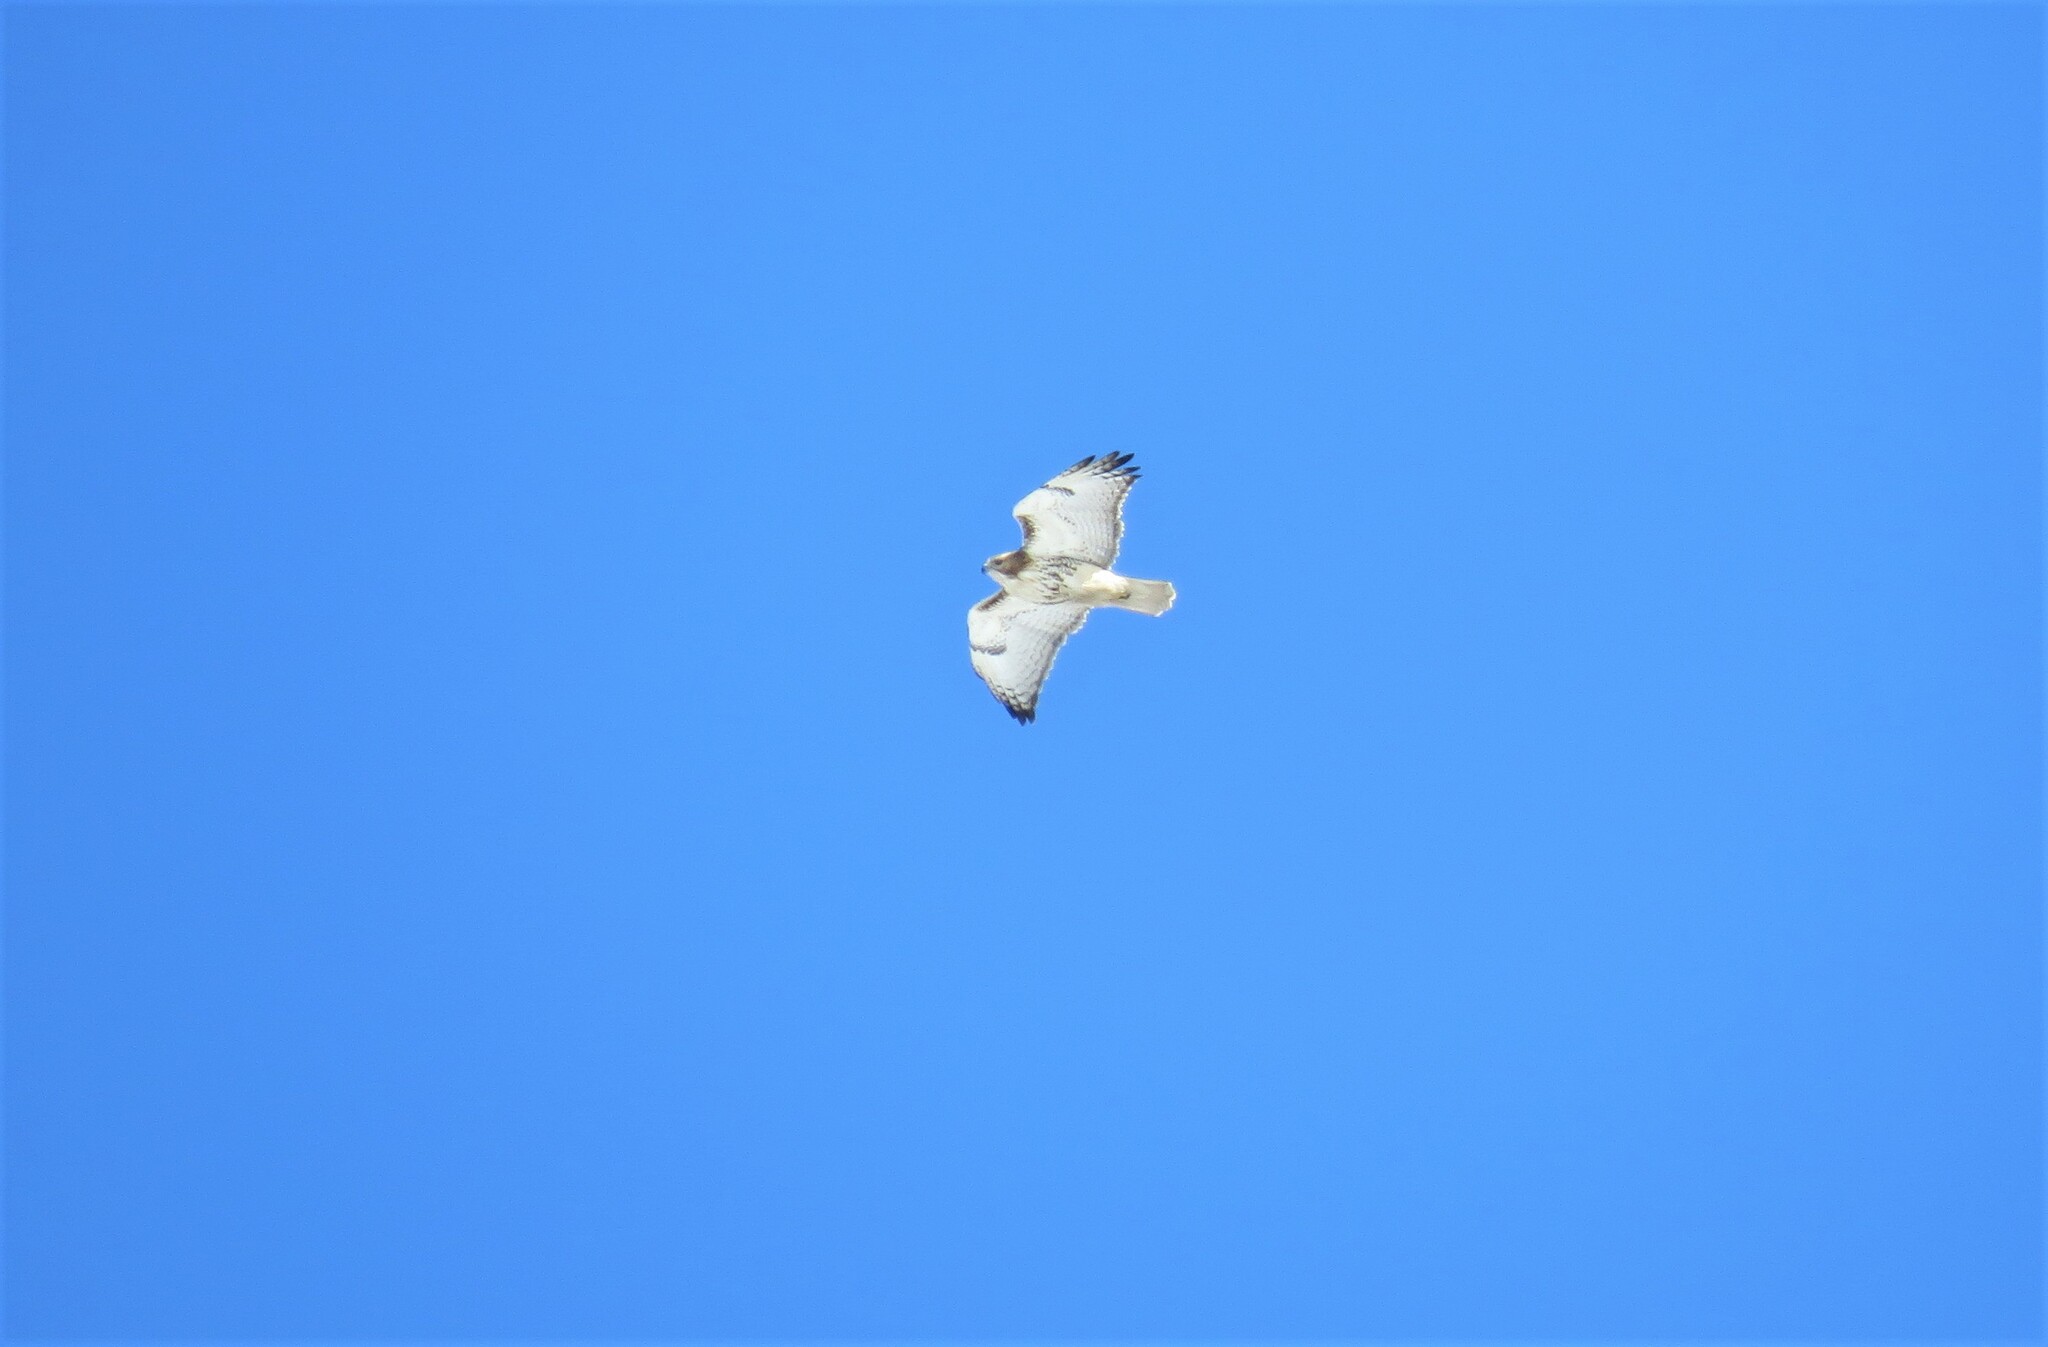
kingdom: Animalia
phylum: Chordata
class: Aves
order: Accipitriformes
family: Accipitridae
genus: Buteo
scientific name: Buteo jamaicensis
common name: Red-tailed hawk
